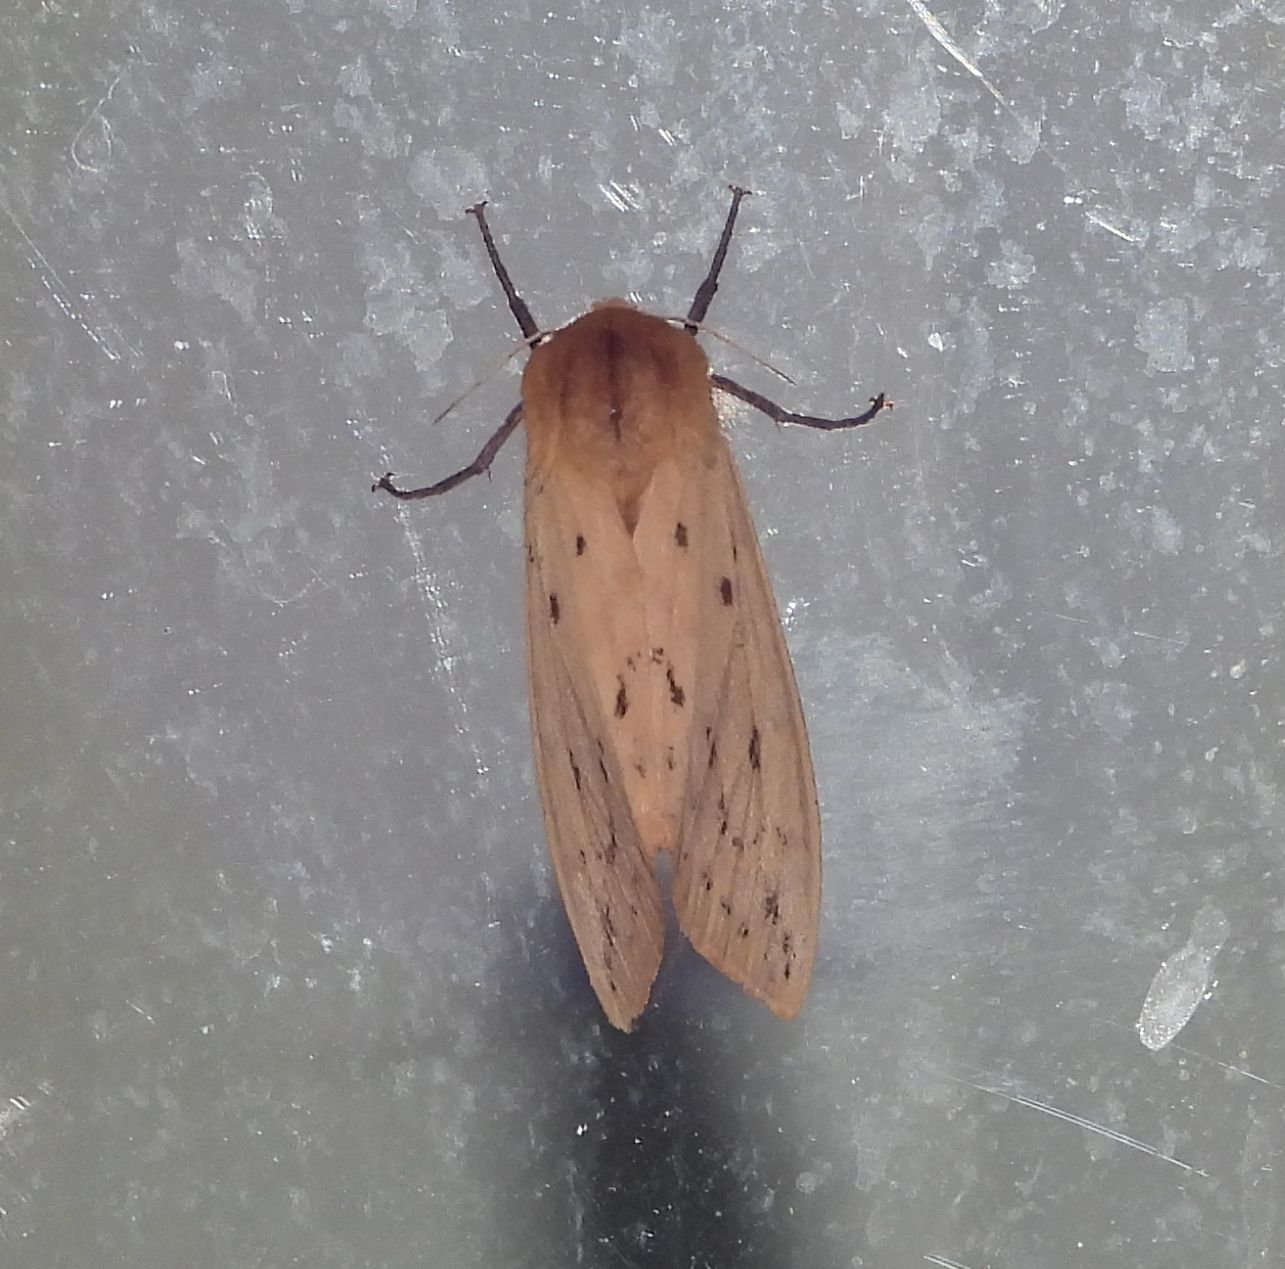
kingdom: Animalia
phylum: Arthropoda
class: Insecta
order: Lepidoptera
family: Erebidae
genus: Pyrrharctia
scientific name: Pyrrharctia isabella
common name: Isabella tiger moth
